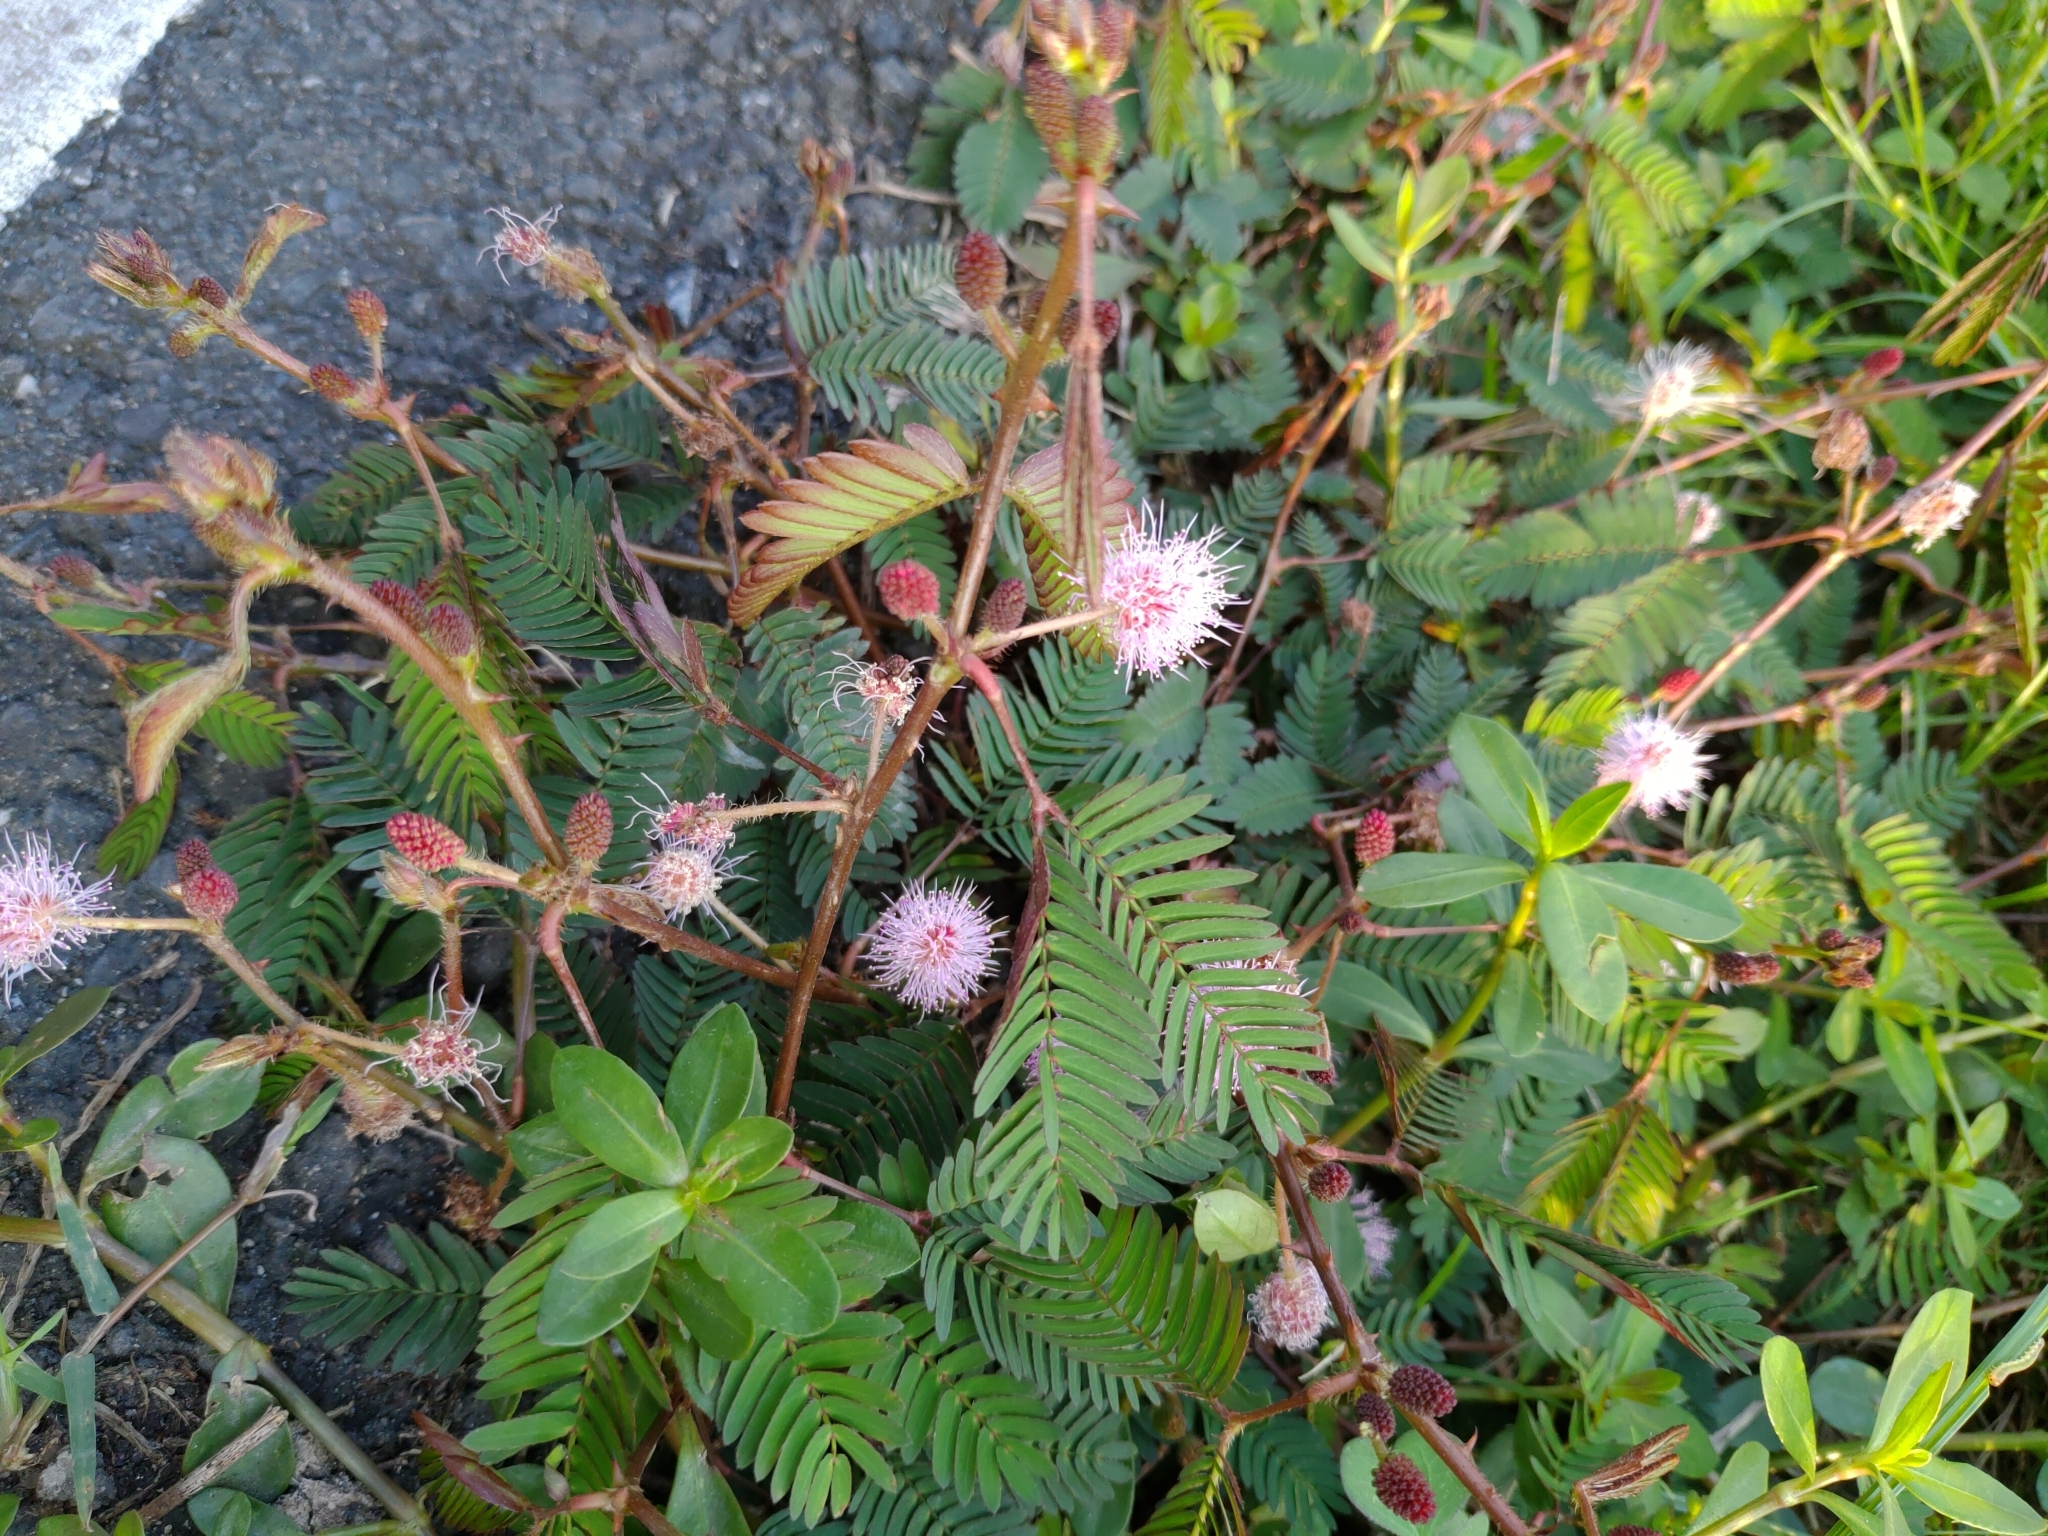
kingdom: Plantae
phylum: Tracheophyta
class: Magnoliopsida
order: Fabales
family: Fabaceae
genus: Mimosa
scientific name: Mimosa pudica
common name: Sensitive plant
